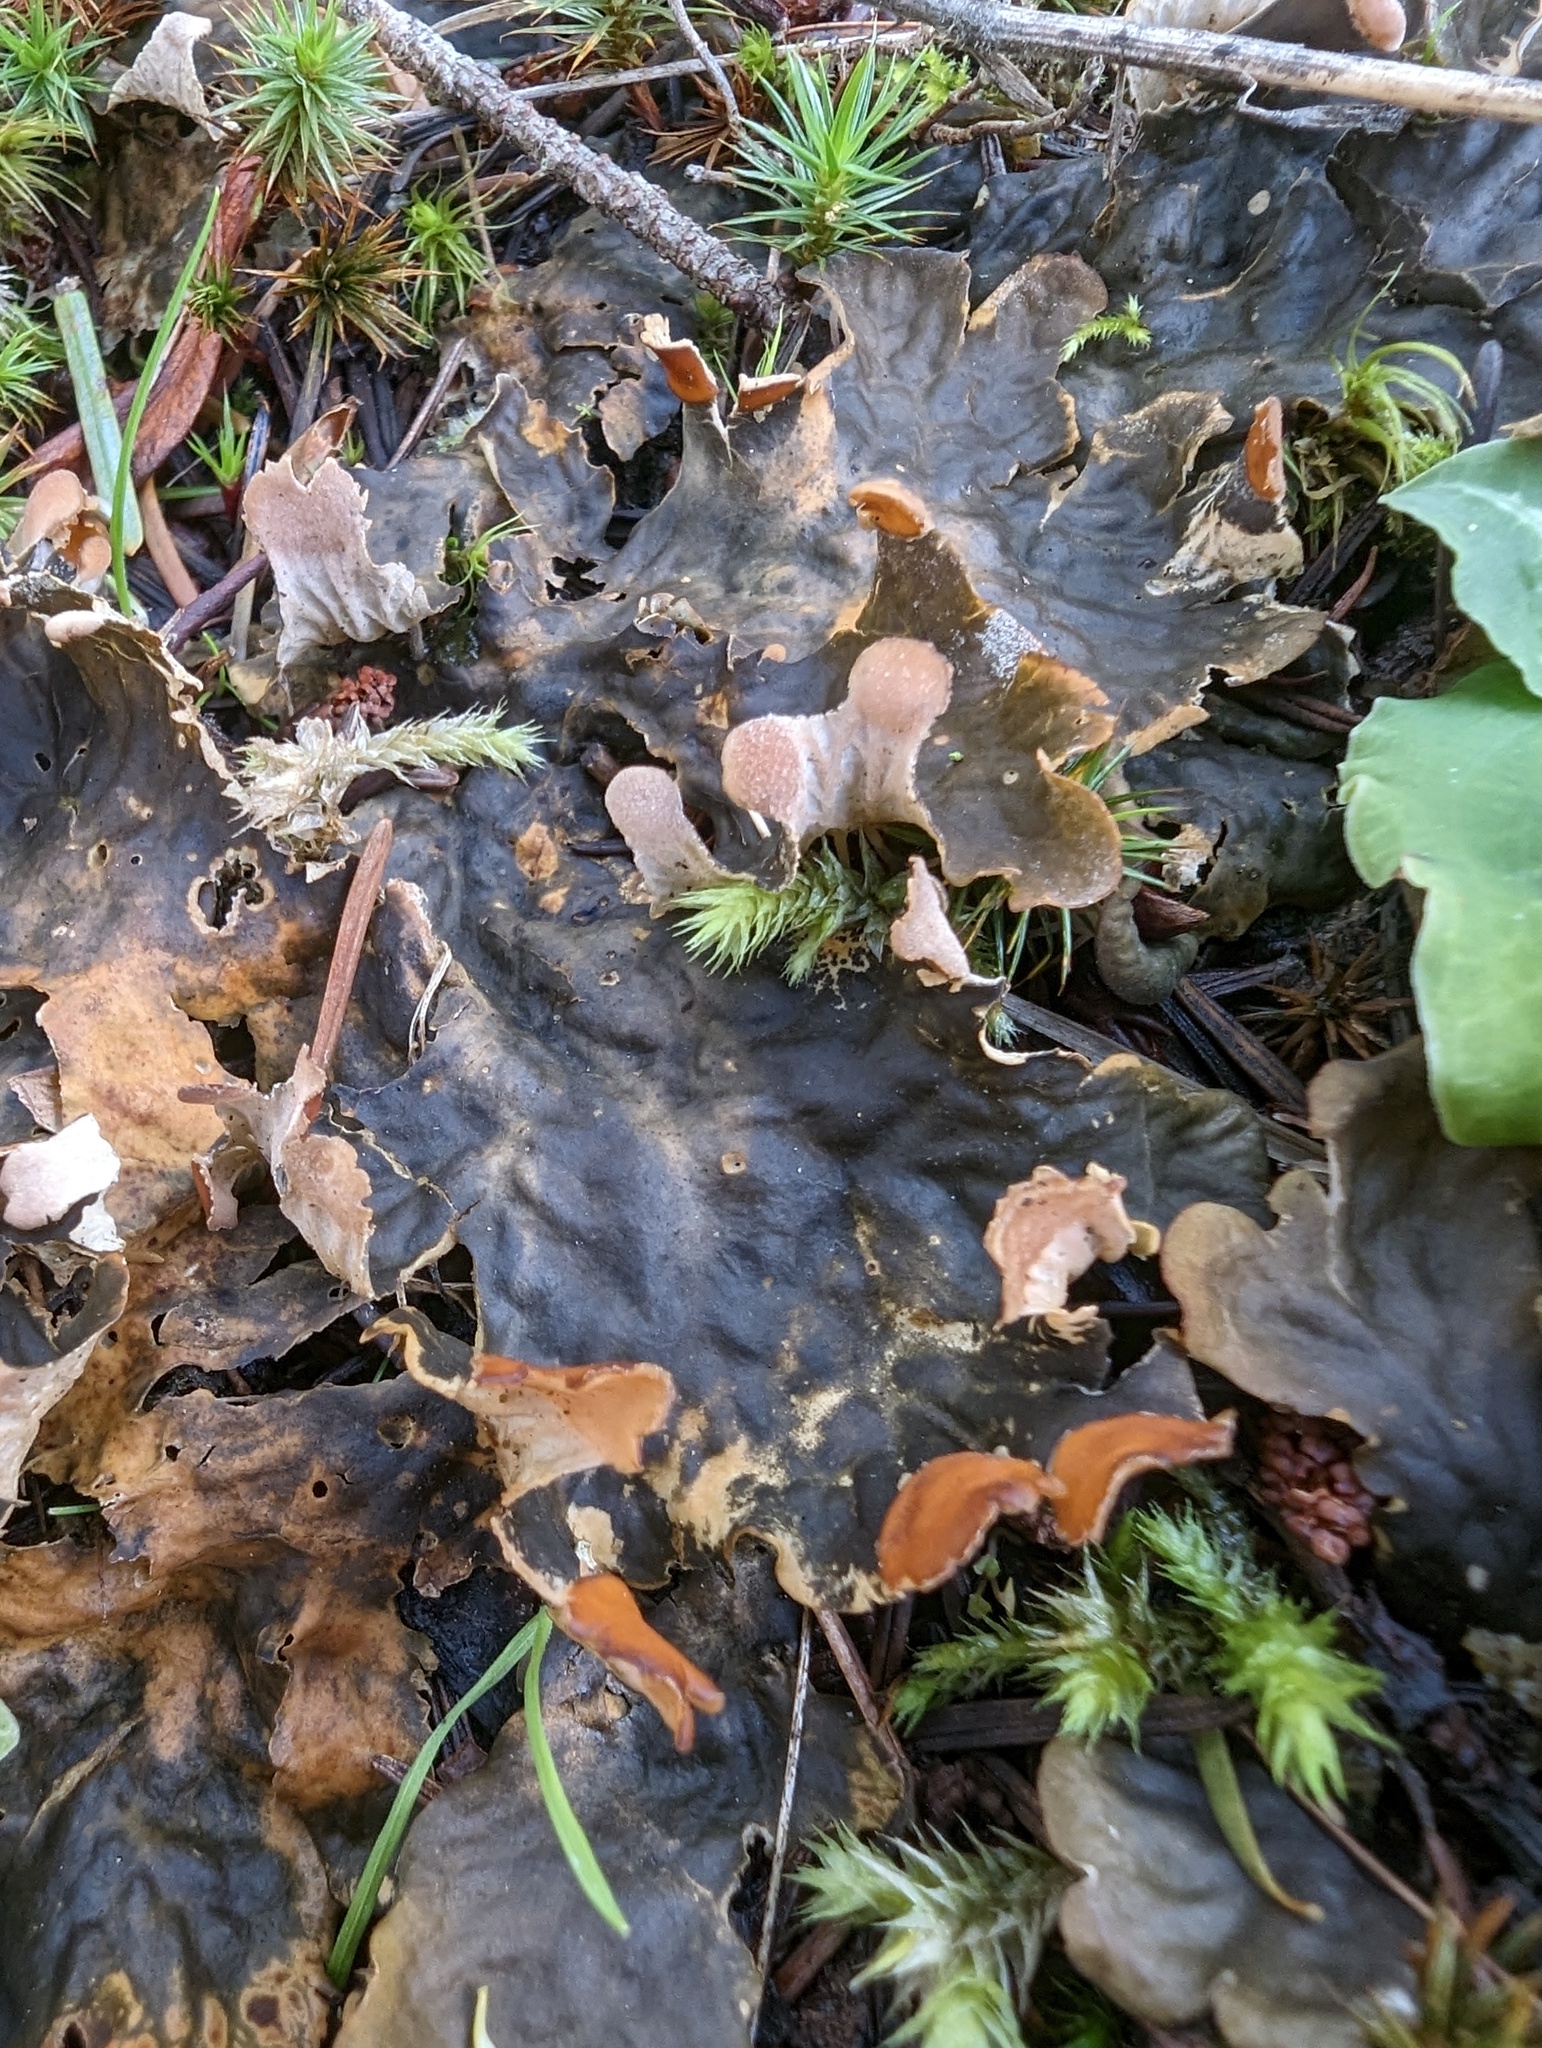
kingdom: Fungi
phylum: Ascomycota
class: Lecanoromycetes
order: Peltigerales
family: Peltigeraceae
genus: Peltigera
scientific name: Peltigera neopolydactyla
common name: Carpet pelt
